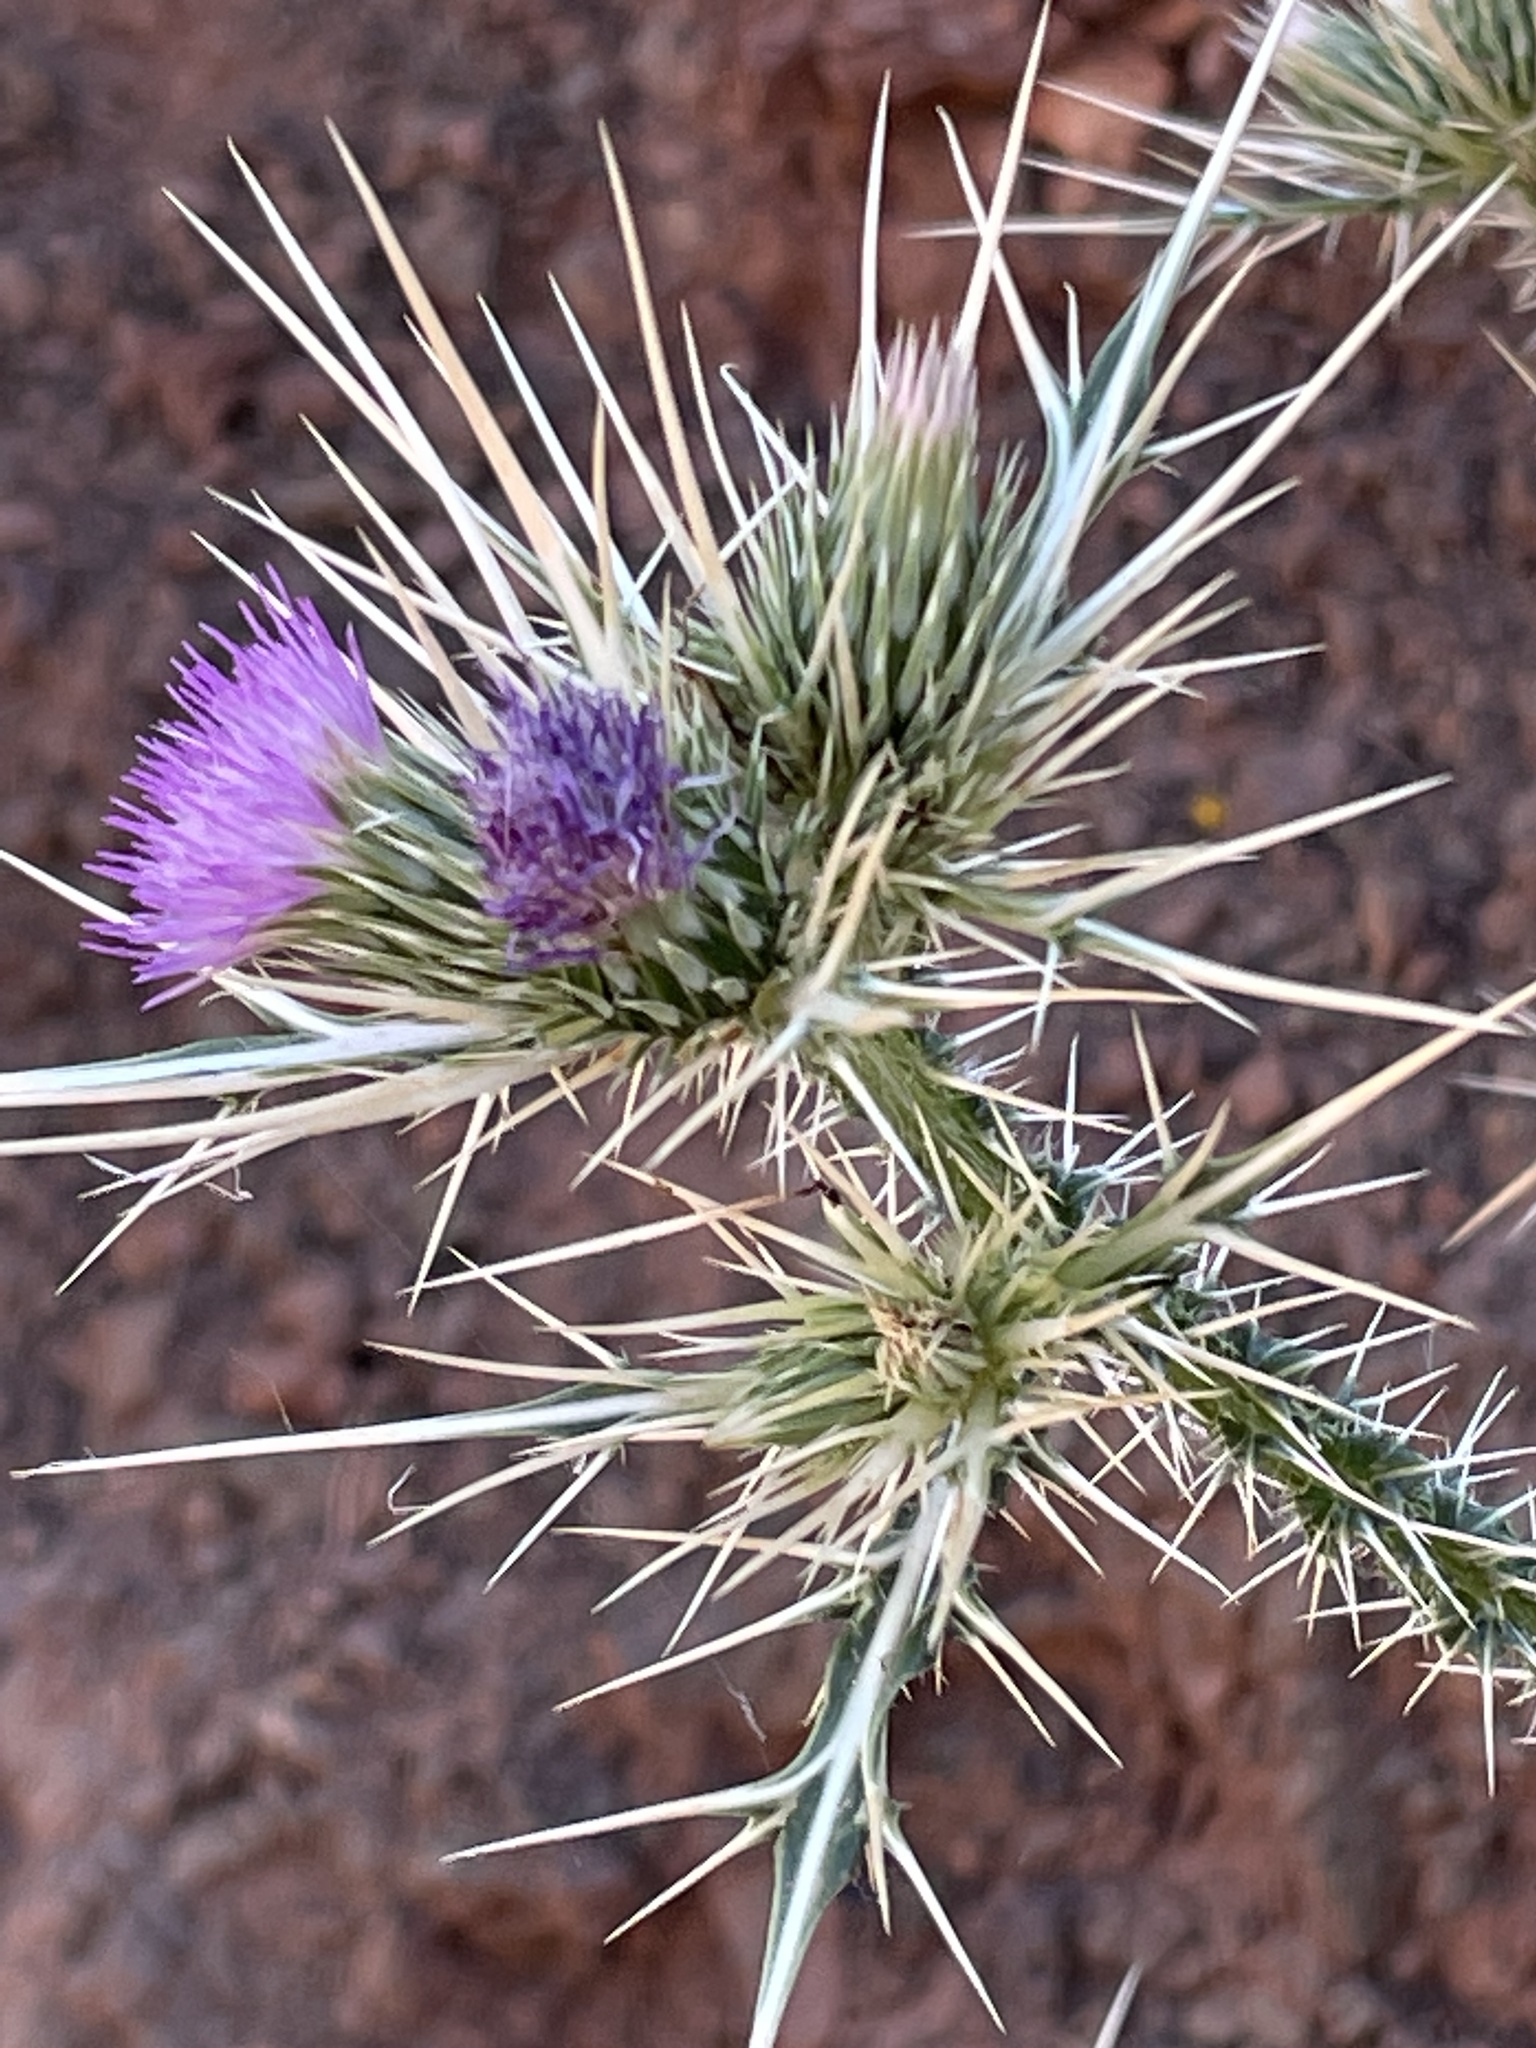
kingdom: Plantae
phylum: Tracheophyta
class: Magnoliopsida
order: Asterales
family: Asteraceae
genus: Carduus
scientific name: Carduus chevallieri
